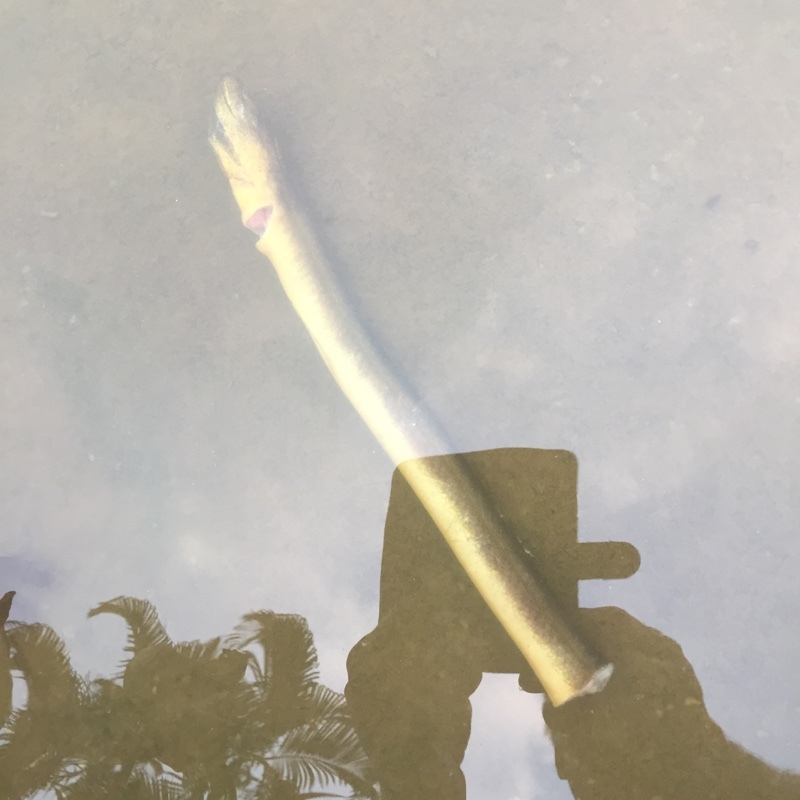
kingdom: Animalia
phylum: Chordata
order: Synbranchiformes
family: Synbranchidae
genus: Monopterus
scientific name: Monopterus albus
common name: Asian swamp eel
